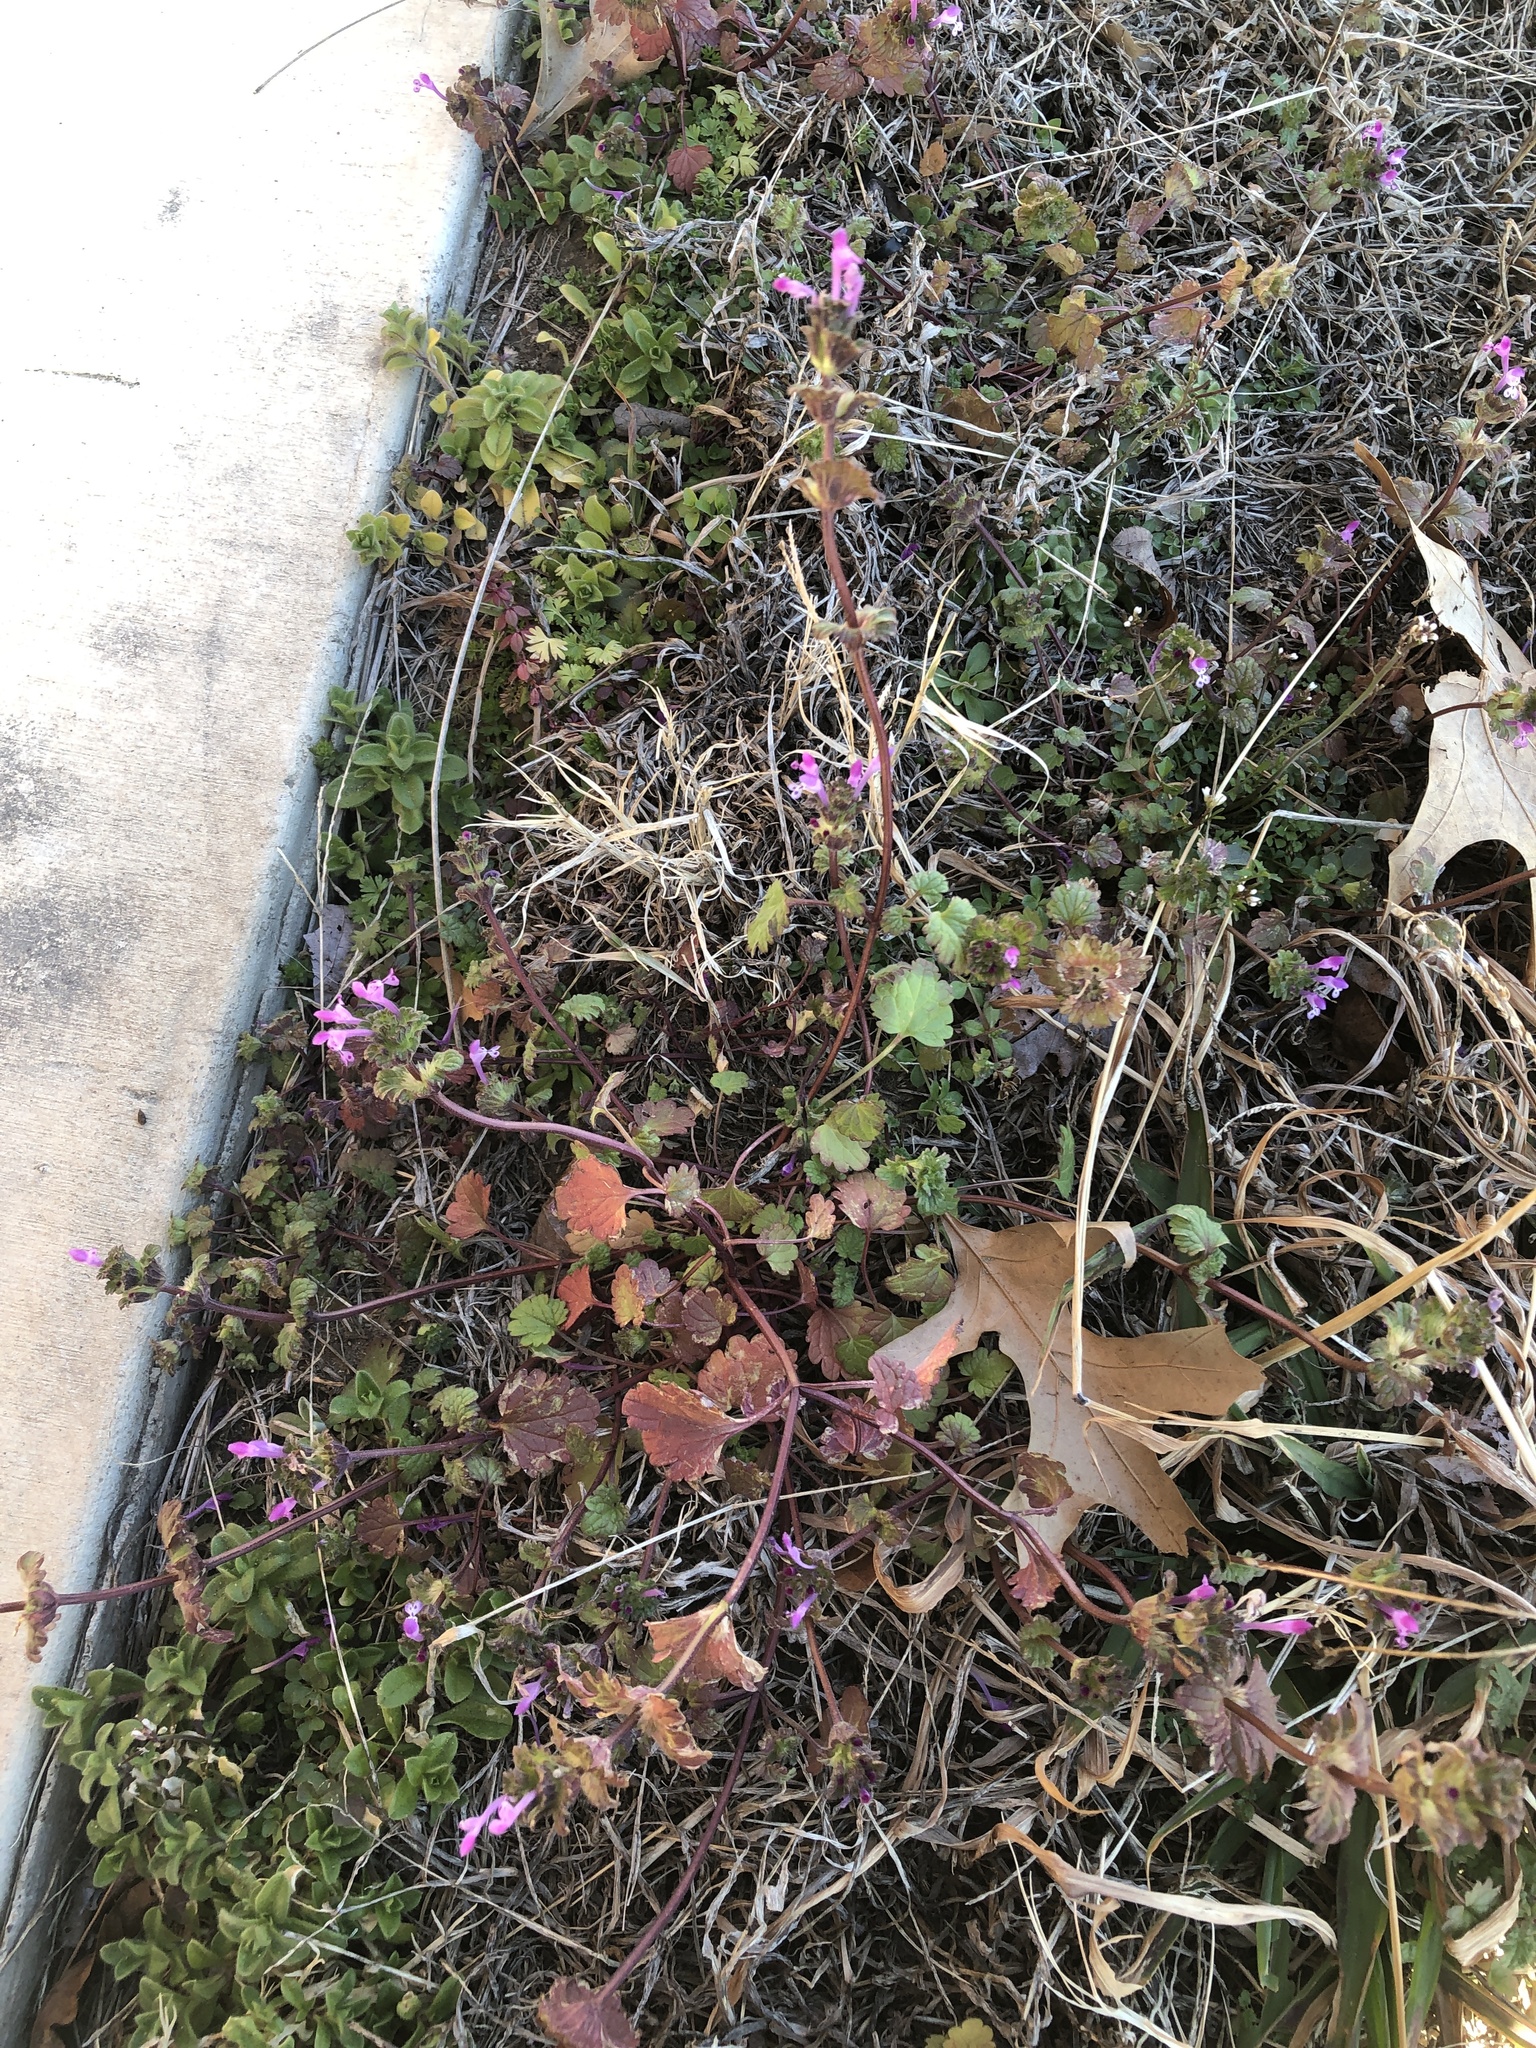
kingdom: Plantae
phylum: Tracheophyta
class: Magnoliopsida
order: Lamiales
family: Lamiaceae
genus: Lamium
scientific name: Lamium amplexicaule
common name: Henbit dead-nettle
